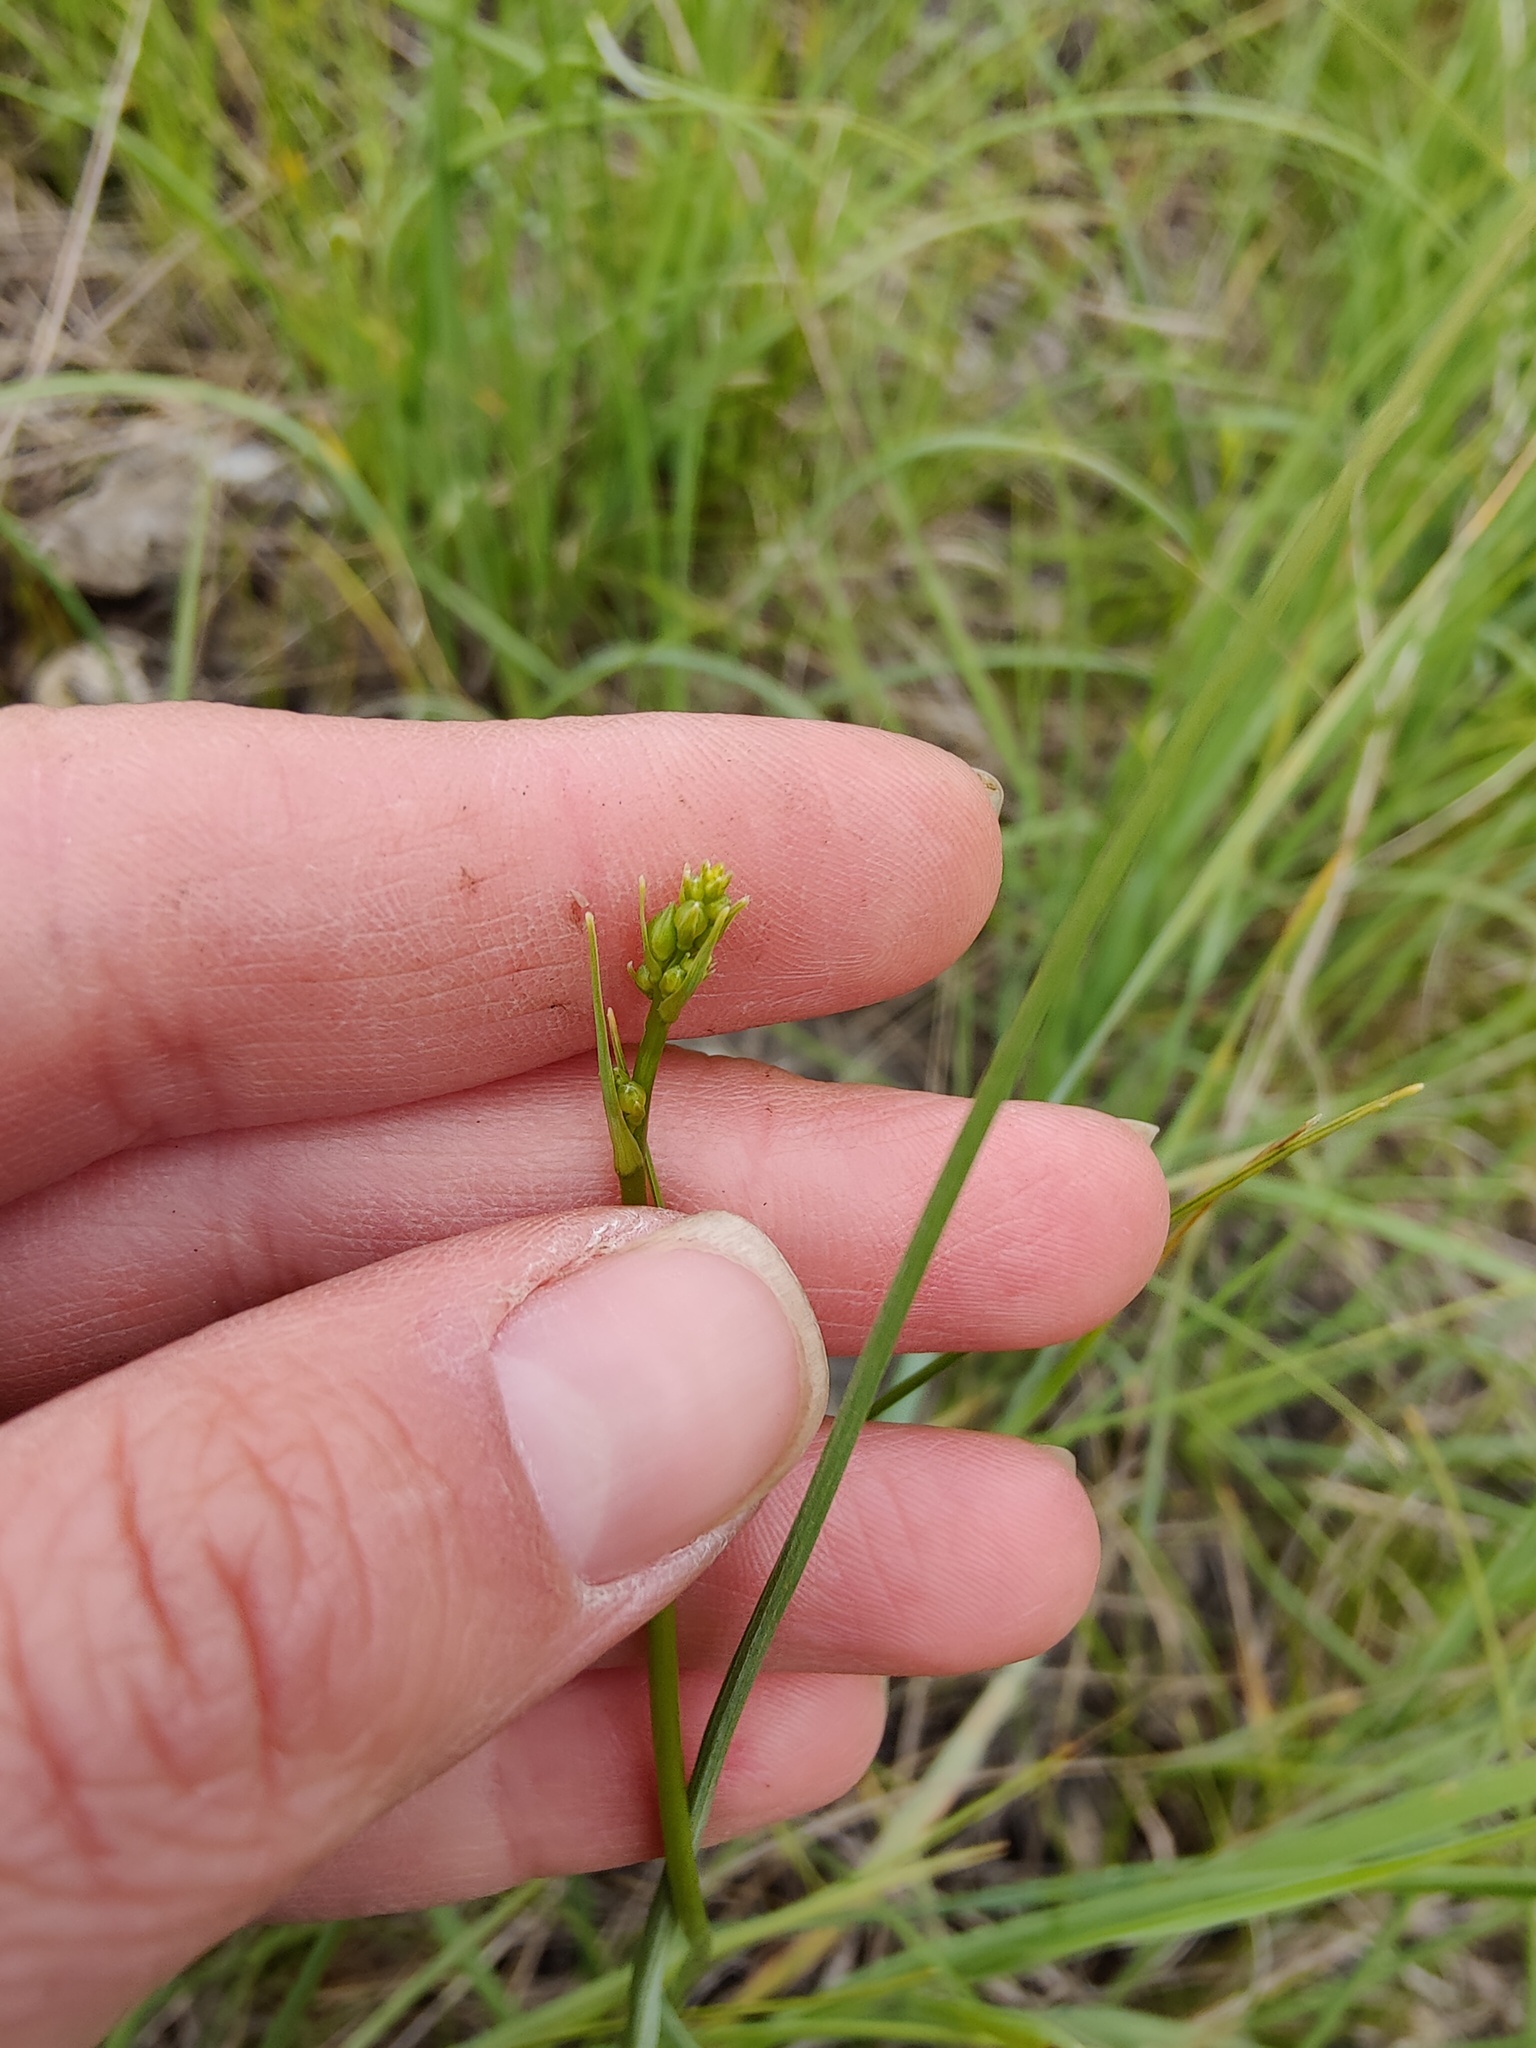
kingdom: Plantae
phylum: Tracheophyta
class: Liliopsida
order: Asparagales
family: Asparagaceae
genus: Anthericum
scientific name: Anthericum ramosum
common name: Branched st. bernard's-lily
